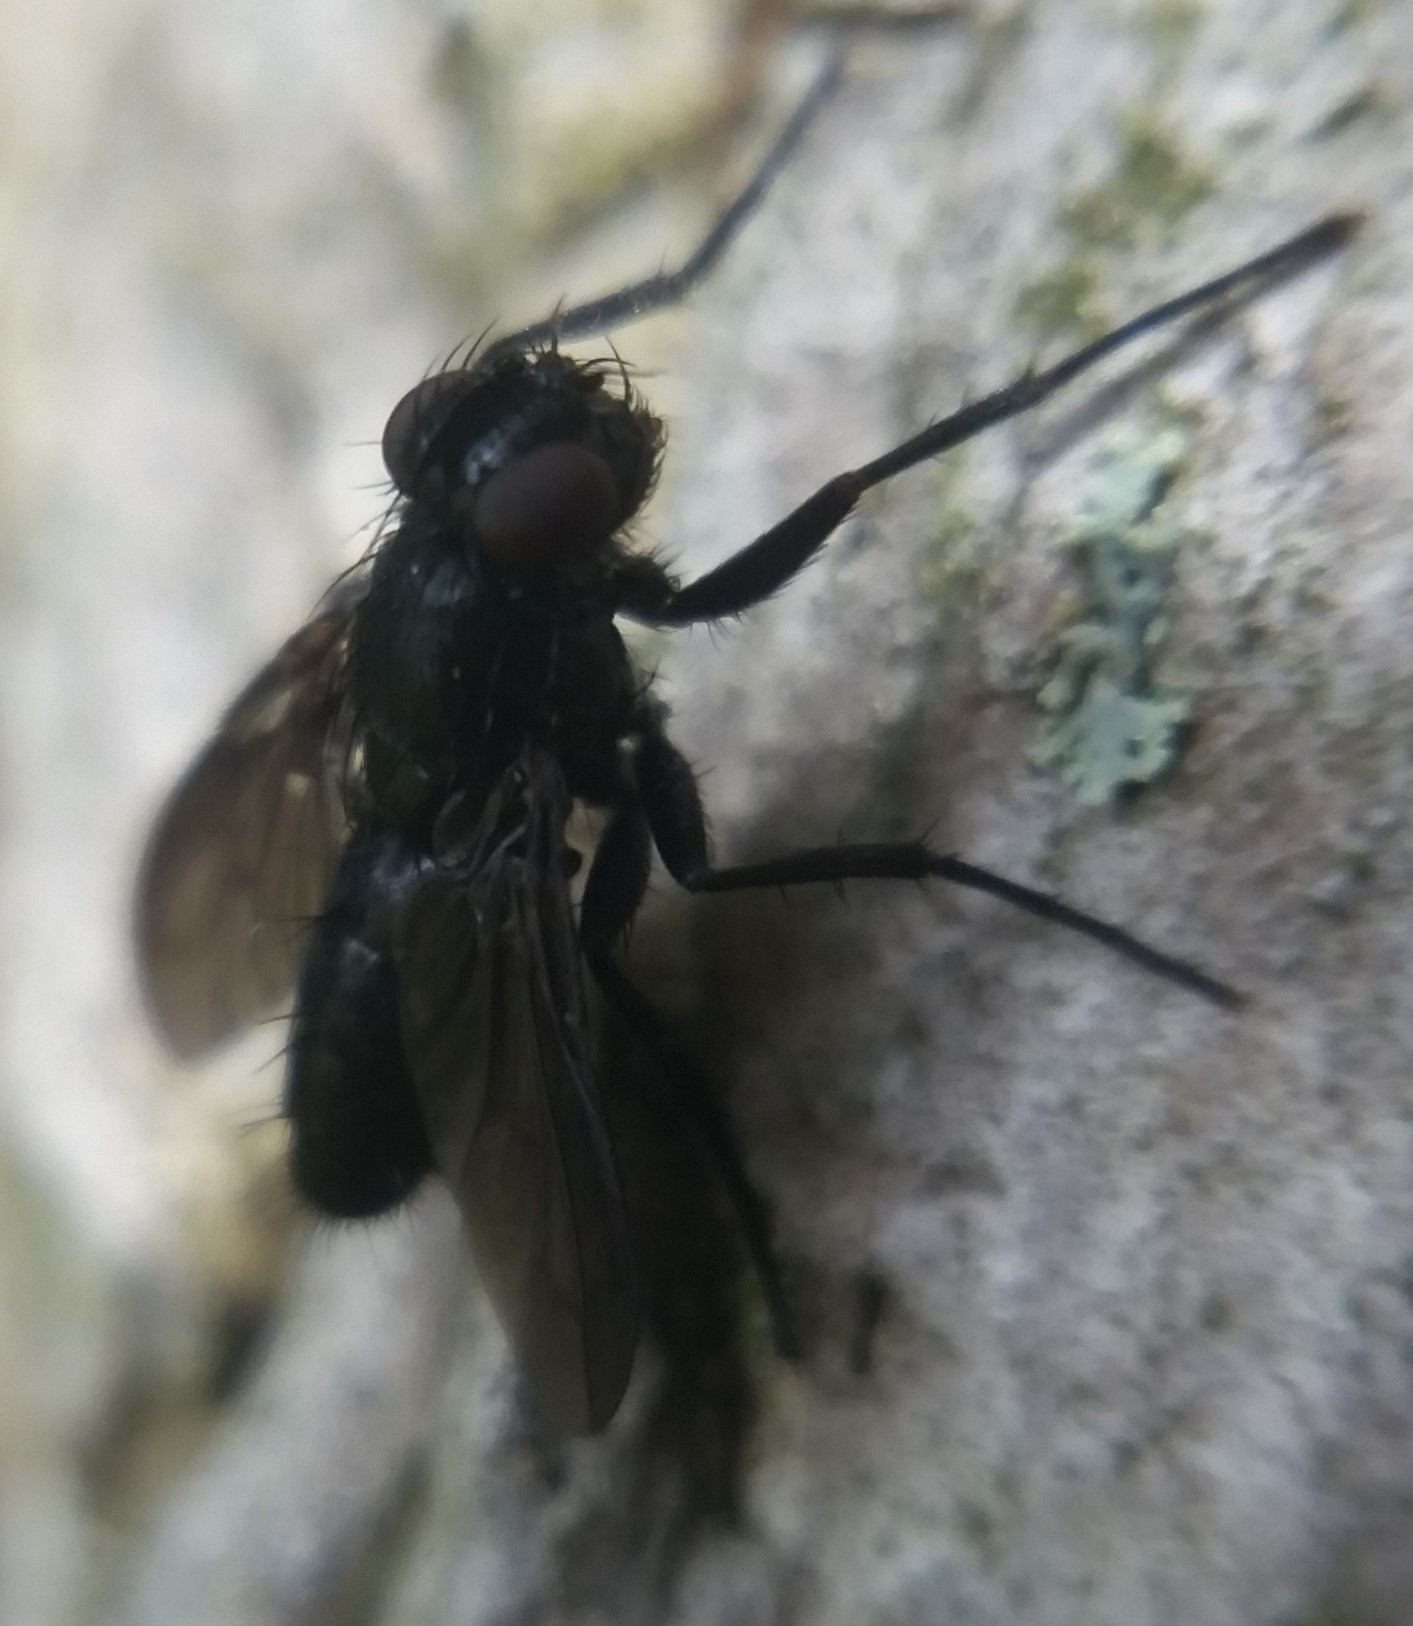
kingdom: Animalia
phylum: Arthropoda
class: Insecta
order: Diptera
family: Calliphoridae
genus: Melanophora
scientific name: Melanophora roralis
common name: Smoky-winged woodlouse-fly
